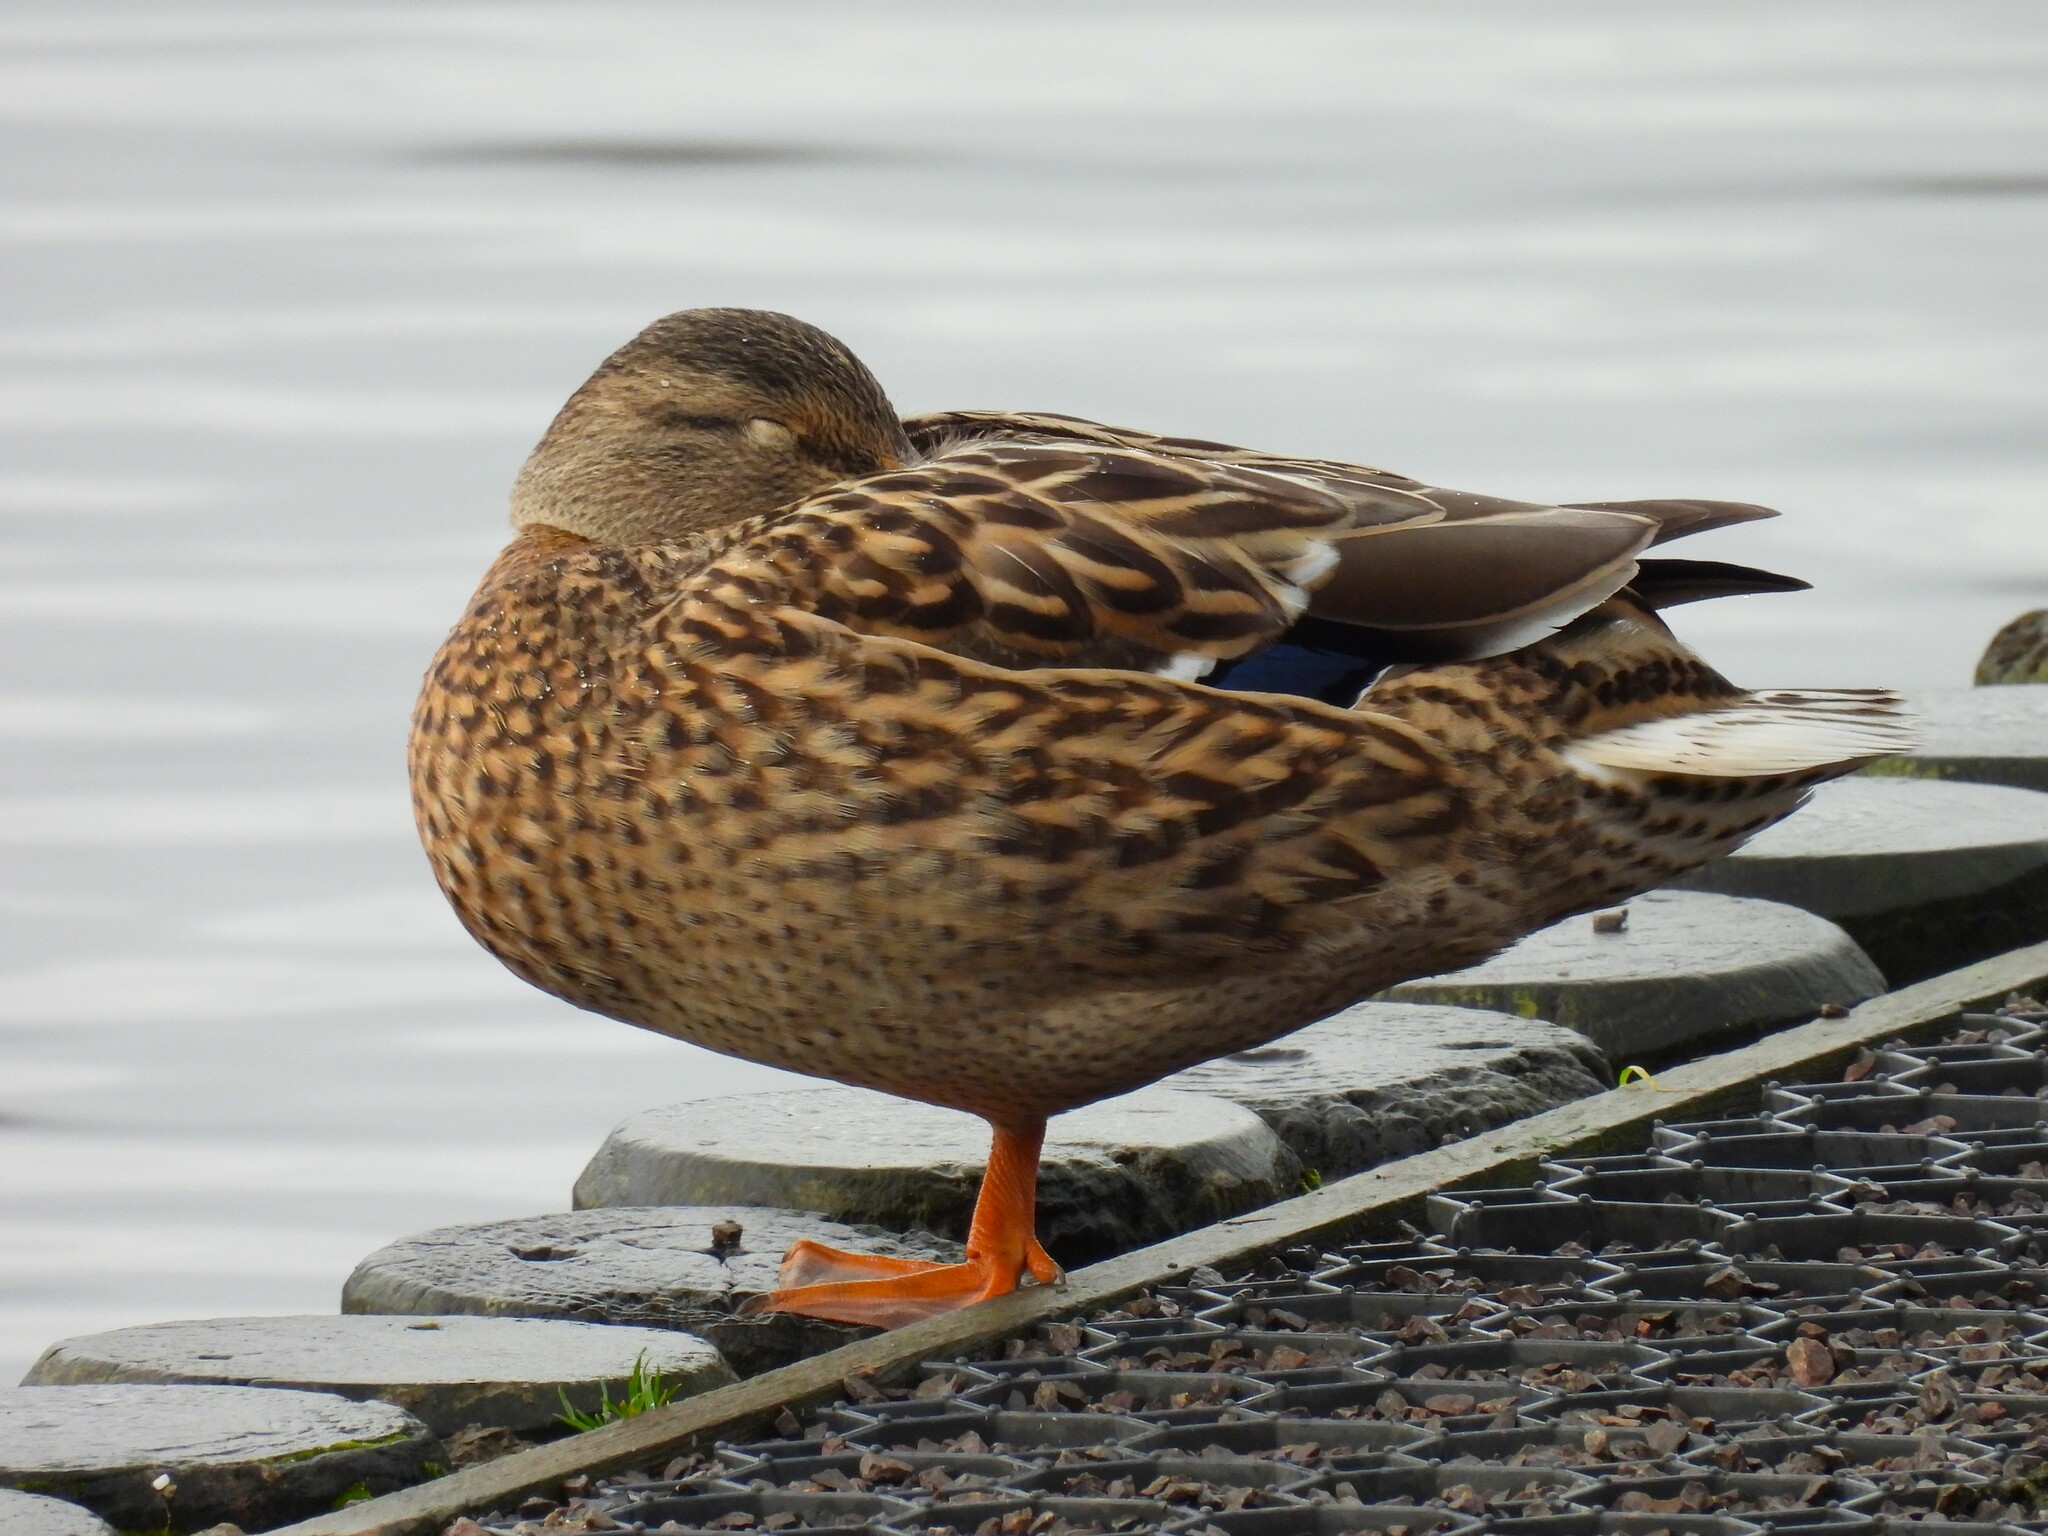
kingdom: Animalia
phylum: Chordata
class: Aves
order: Anseriformes
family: Anatidae
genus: Anas
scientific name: Anas platyrhynchos
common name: Mallard
